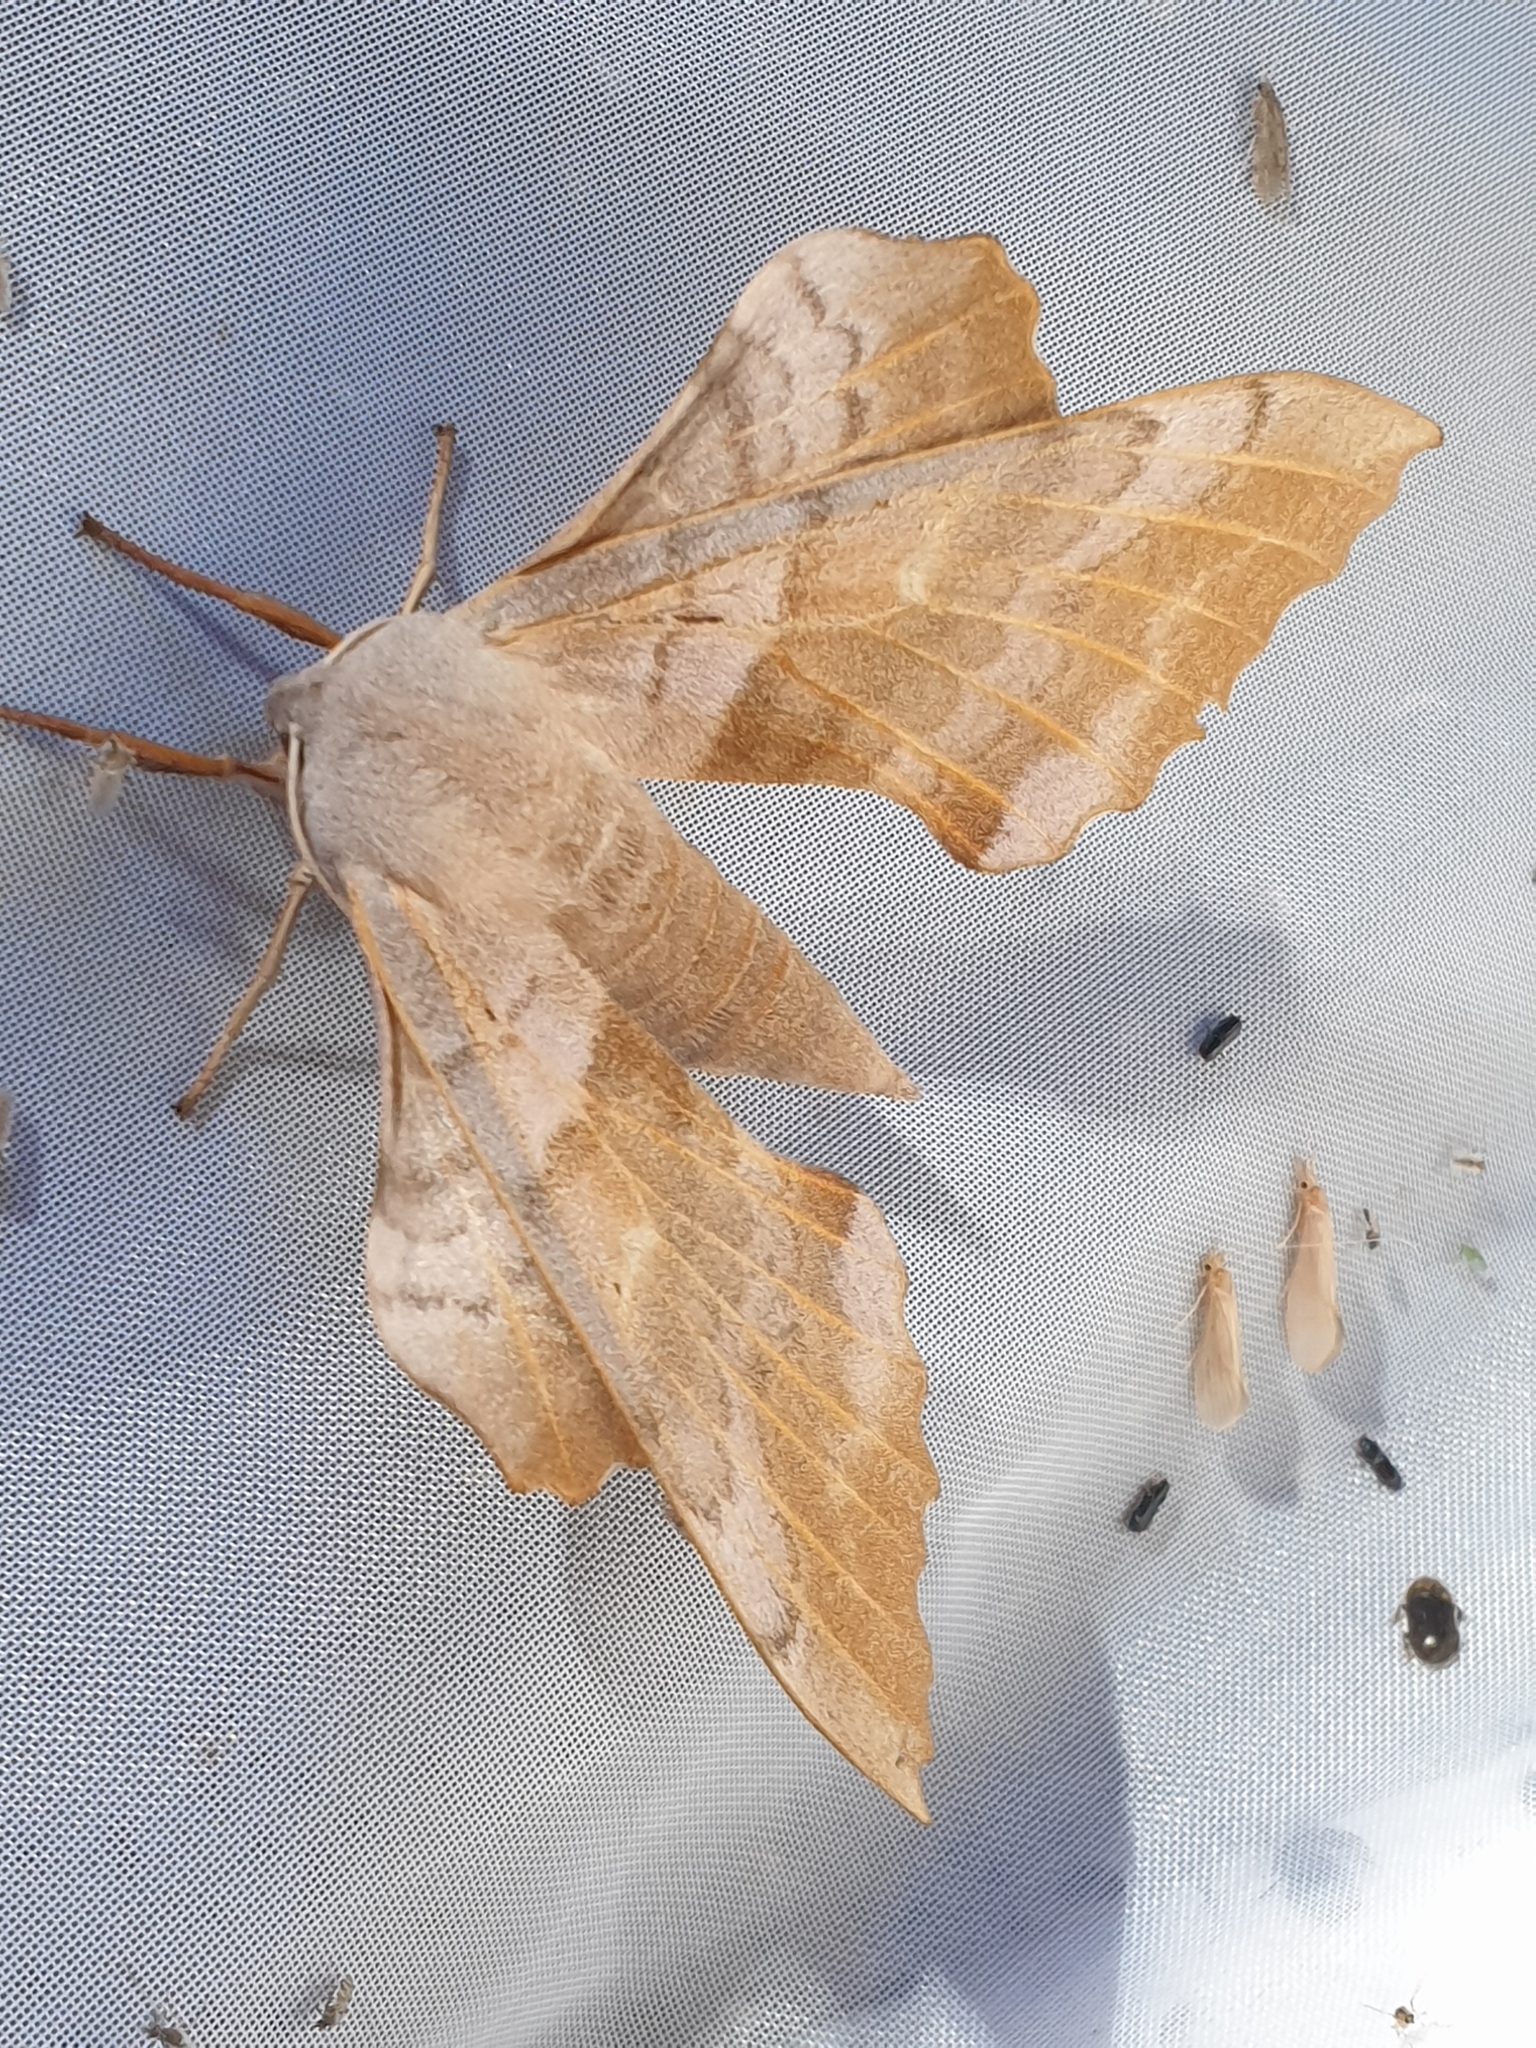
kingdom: Animalia
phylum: Arthropoda
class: Insecta
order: Lepidoptera
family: Sphingidae
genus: Laothoe
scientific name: Laothoe populi
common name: Poplar hawk-moth
